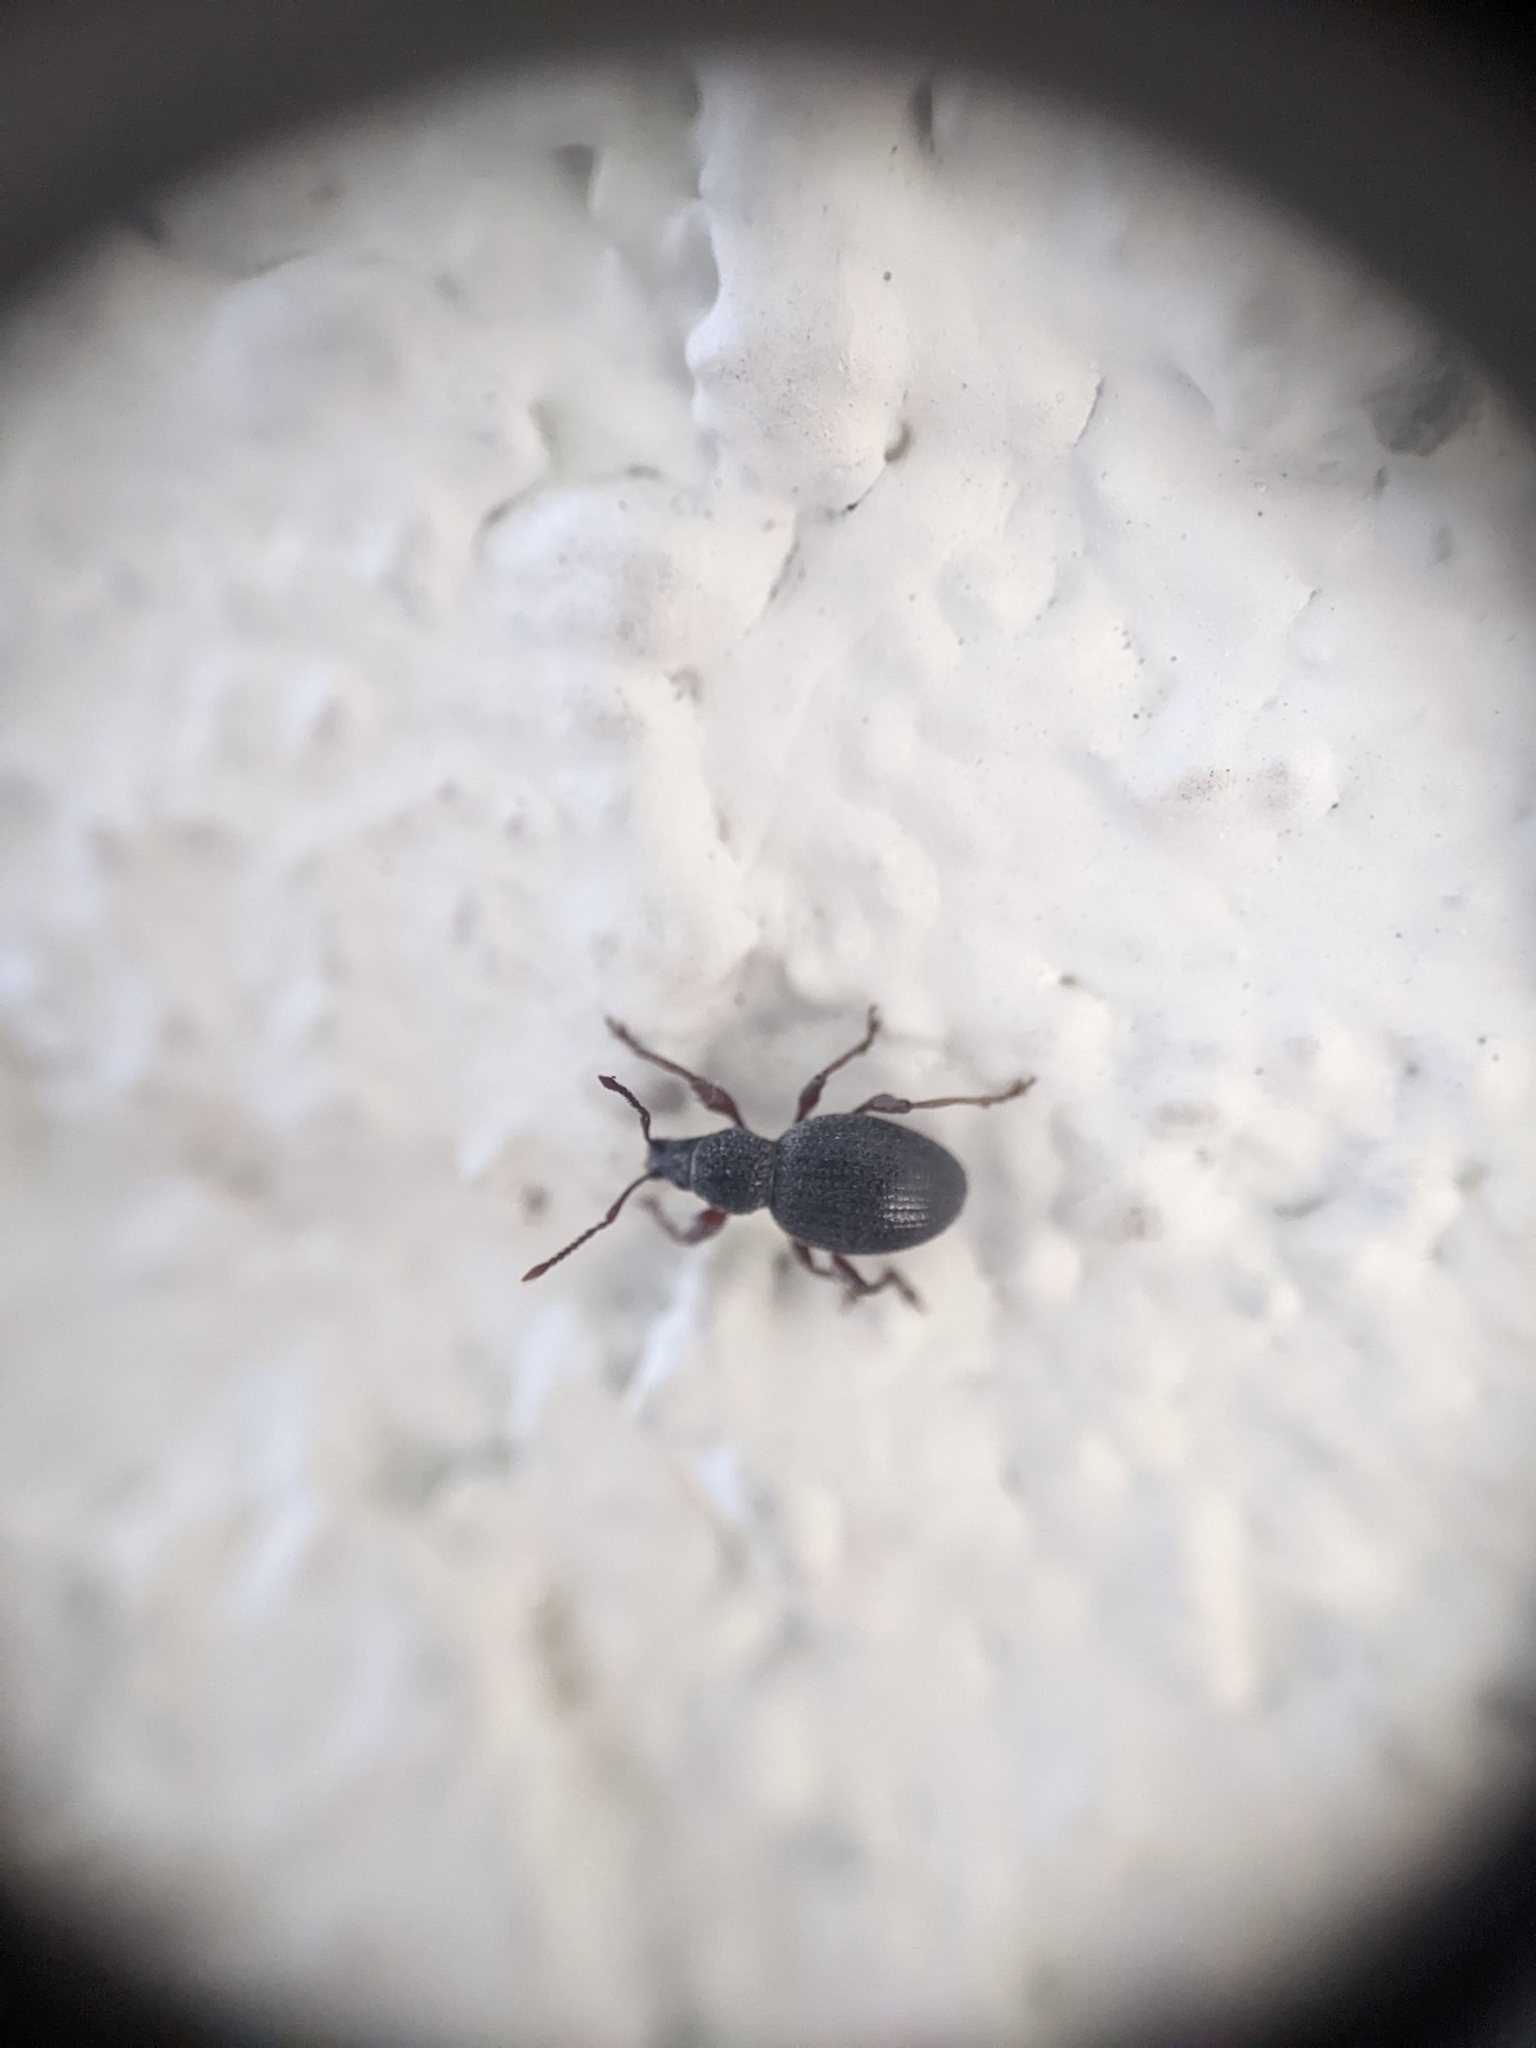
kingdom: Animalia
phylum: Arthropoda
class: Insecta
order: Coleoptera
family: Curculionidae
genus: Otiorhynchus
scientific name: Otiorhynchus ovatus
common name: Strawberry root weevil
